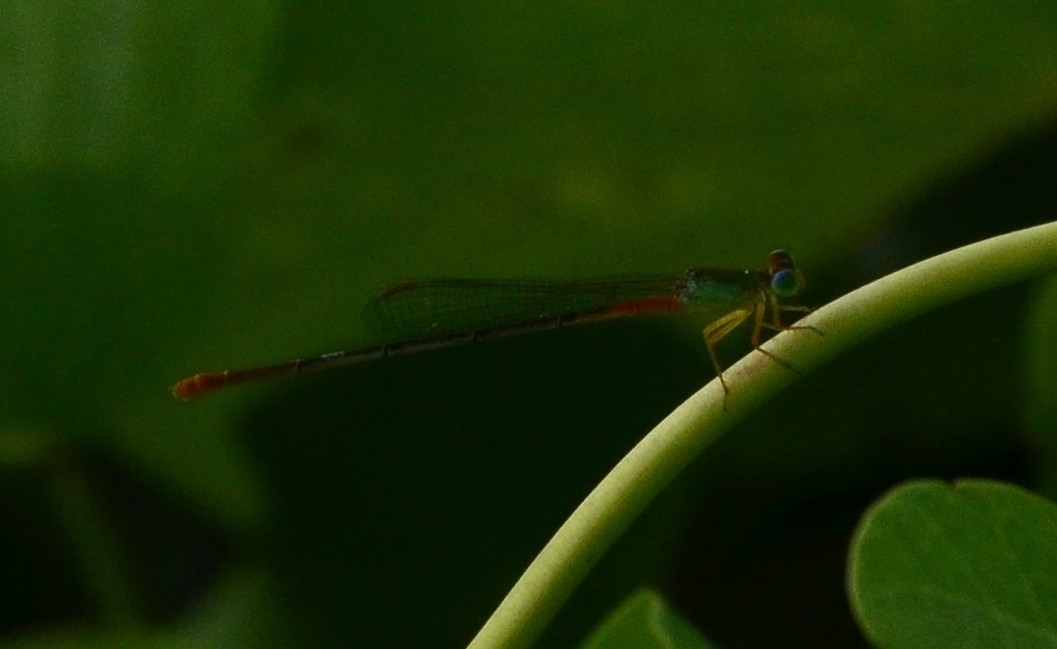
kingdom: Animalia
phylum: Arthropoda
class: Insecta
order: Odonata
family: Coenagrionidae
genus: Ceriagrion
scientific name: Ceriagrion cerinorubellum
